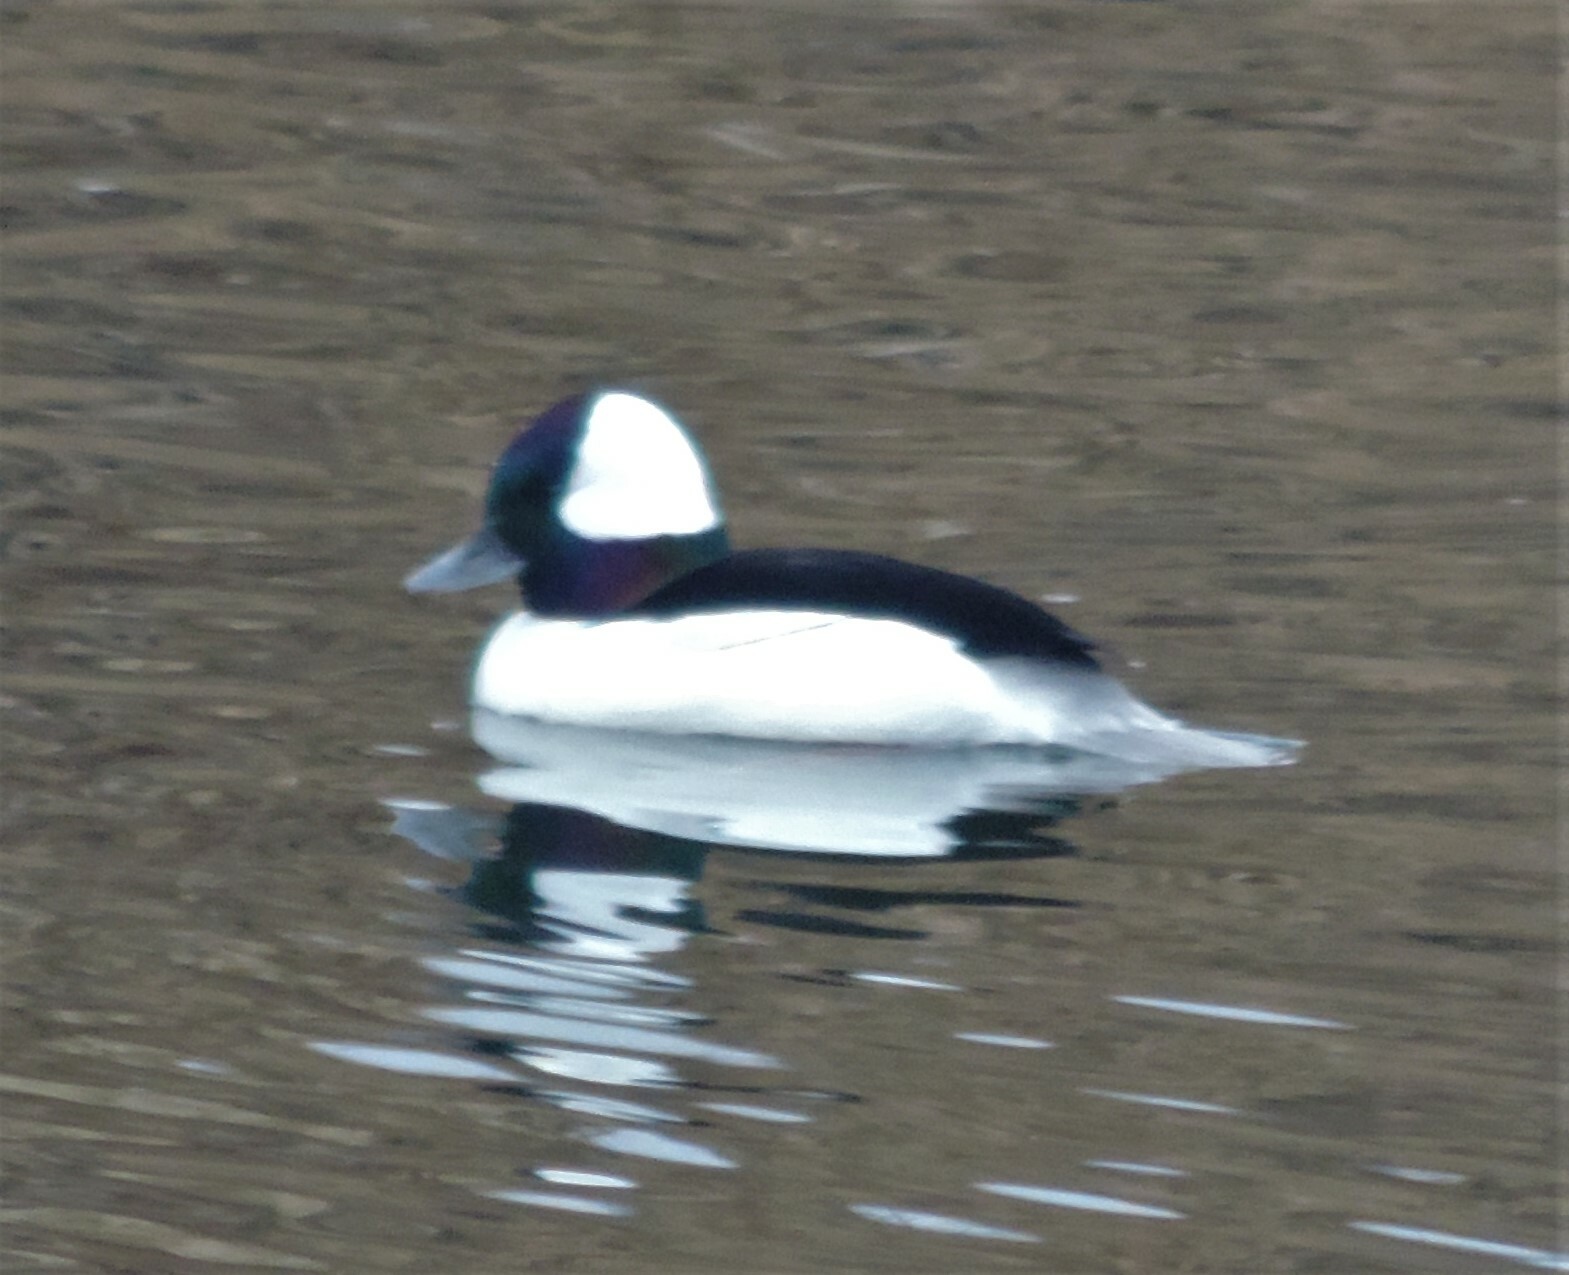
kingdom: Animalia
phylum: Chordata
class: Aves
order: Anseriformes
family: Anatidae
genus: Bucephala
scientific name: Bucephala albeola
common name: Bufflehead
